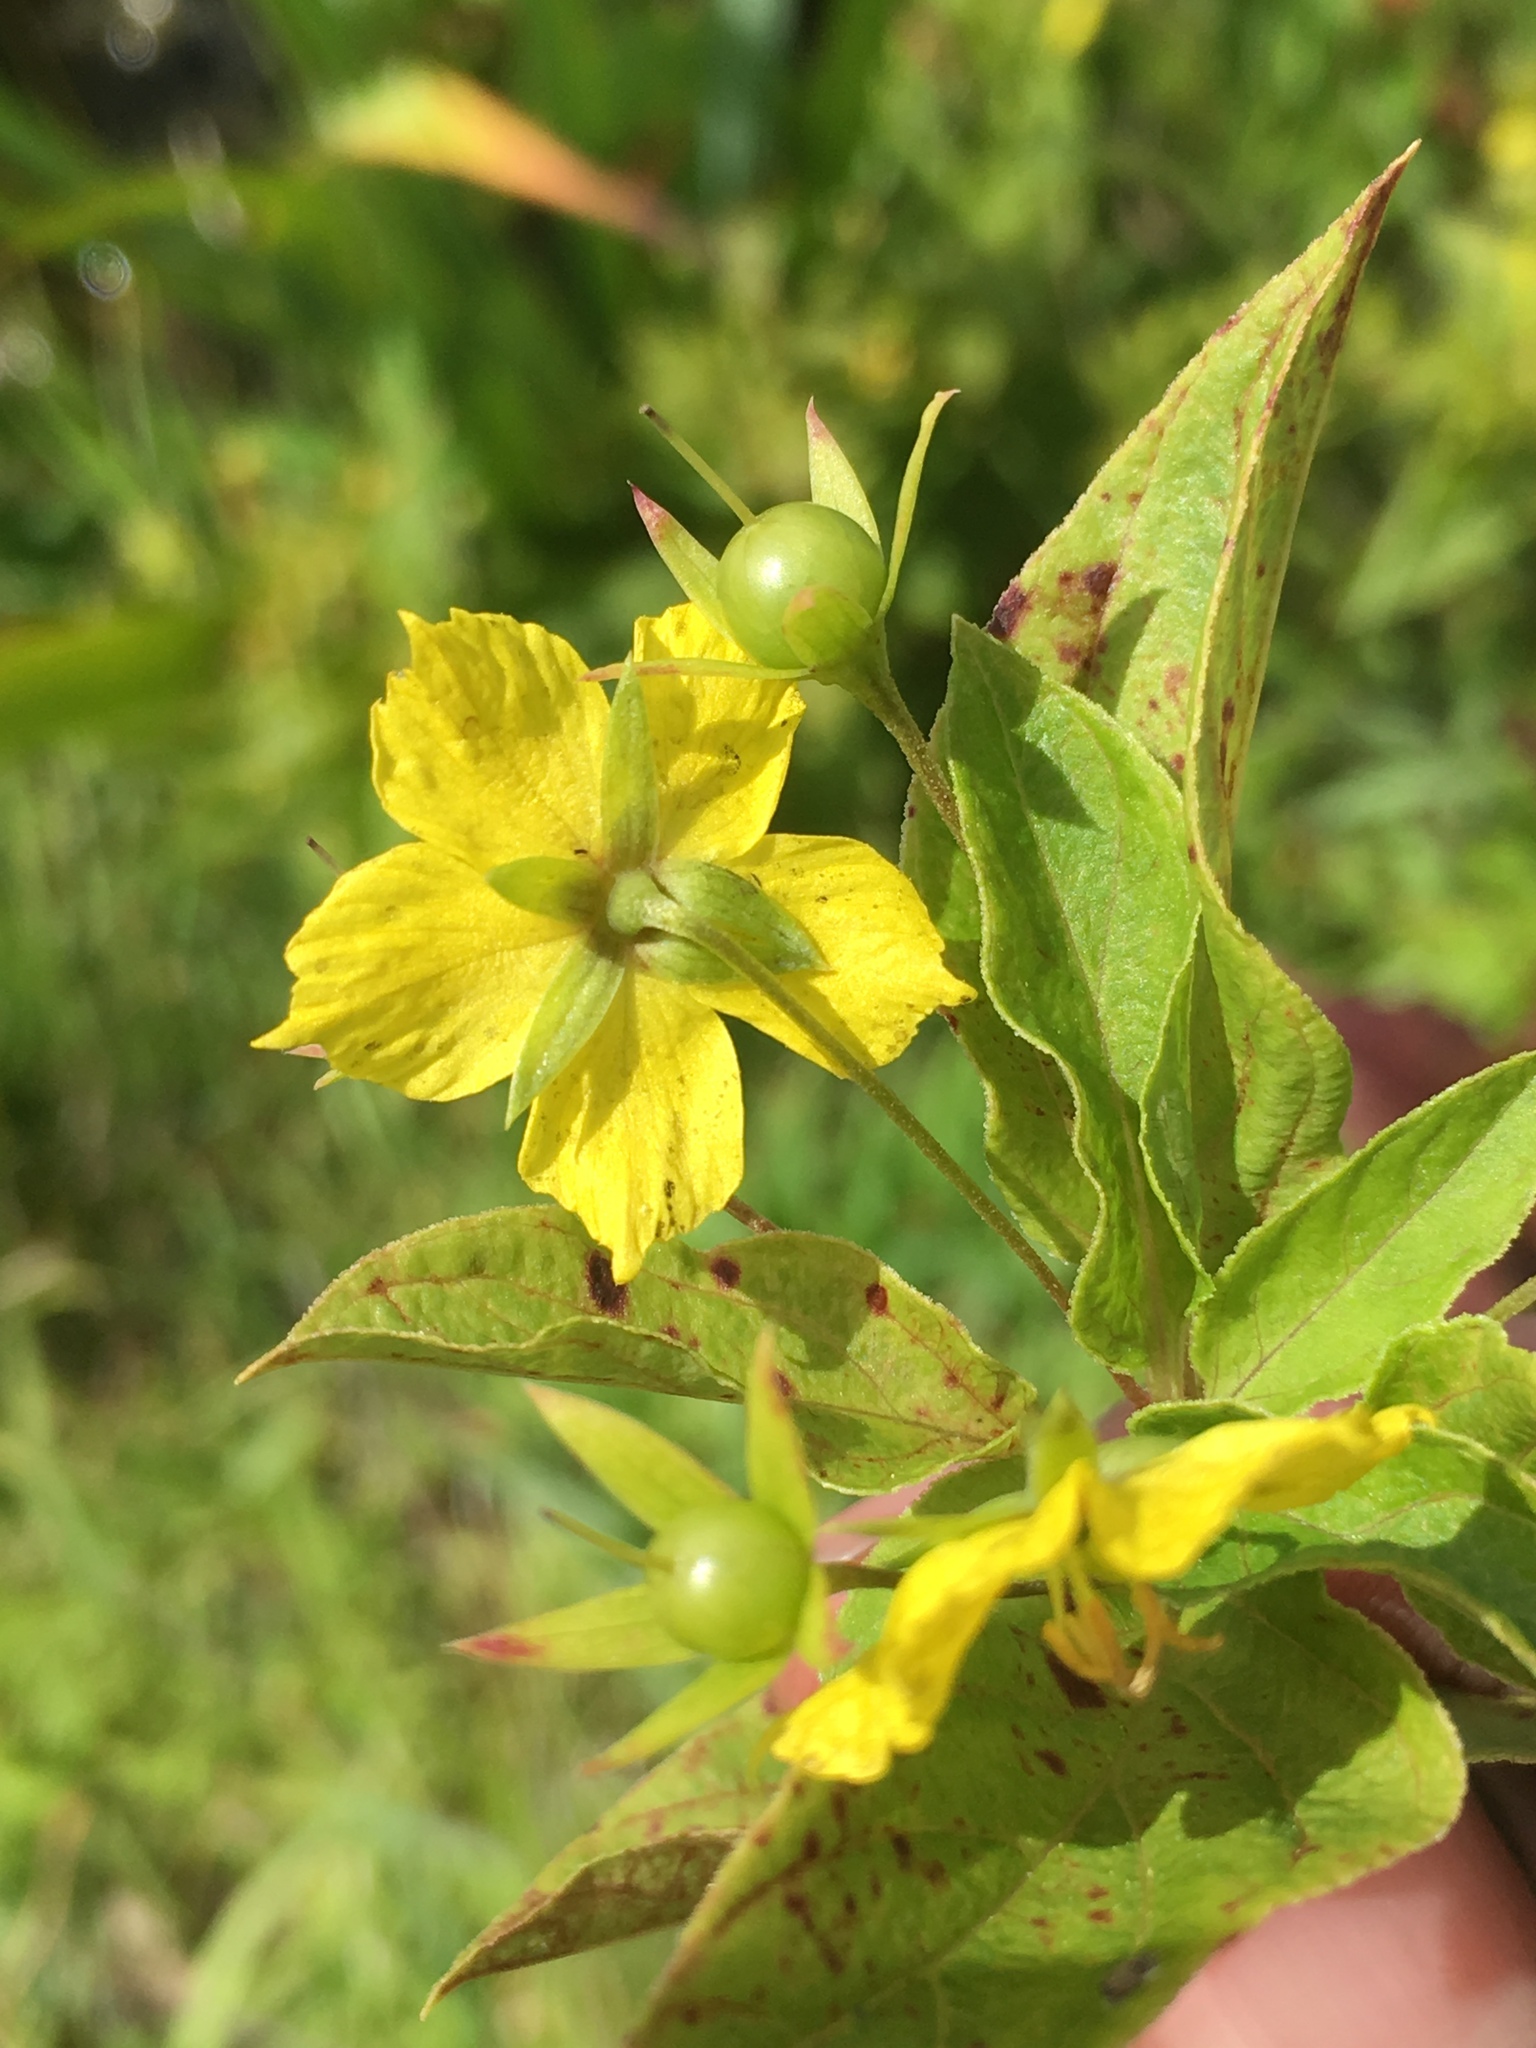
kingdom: Plantae
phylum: Tracheophyta
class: Magnoliopsida
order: Ericales
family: Primulaceae
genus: Lysimachia
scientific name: Lysimachia ciliata
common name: Fringed loosestrife
